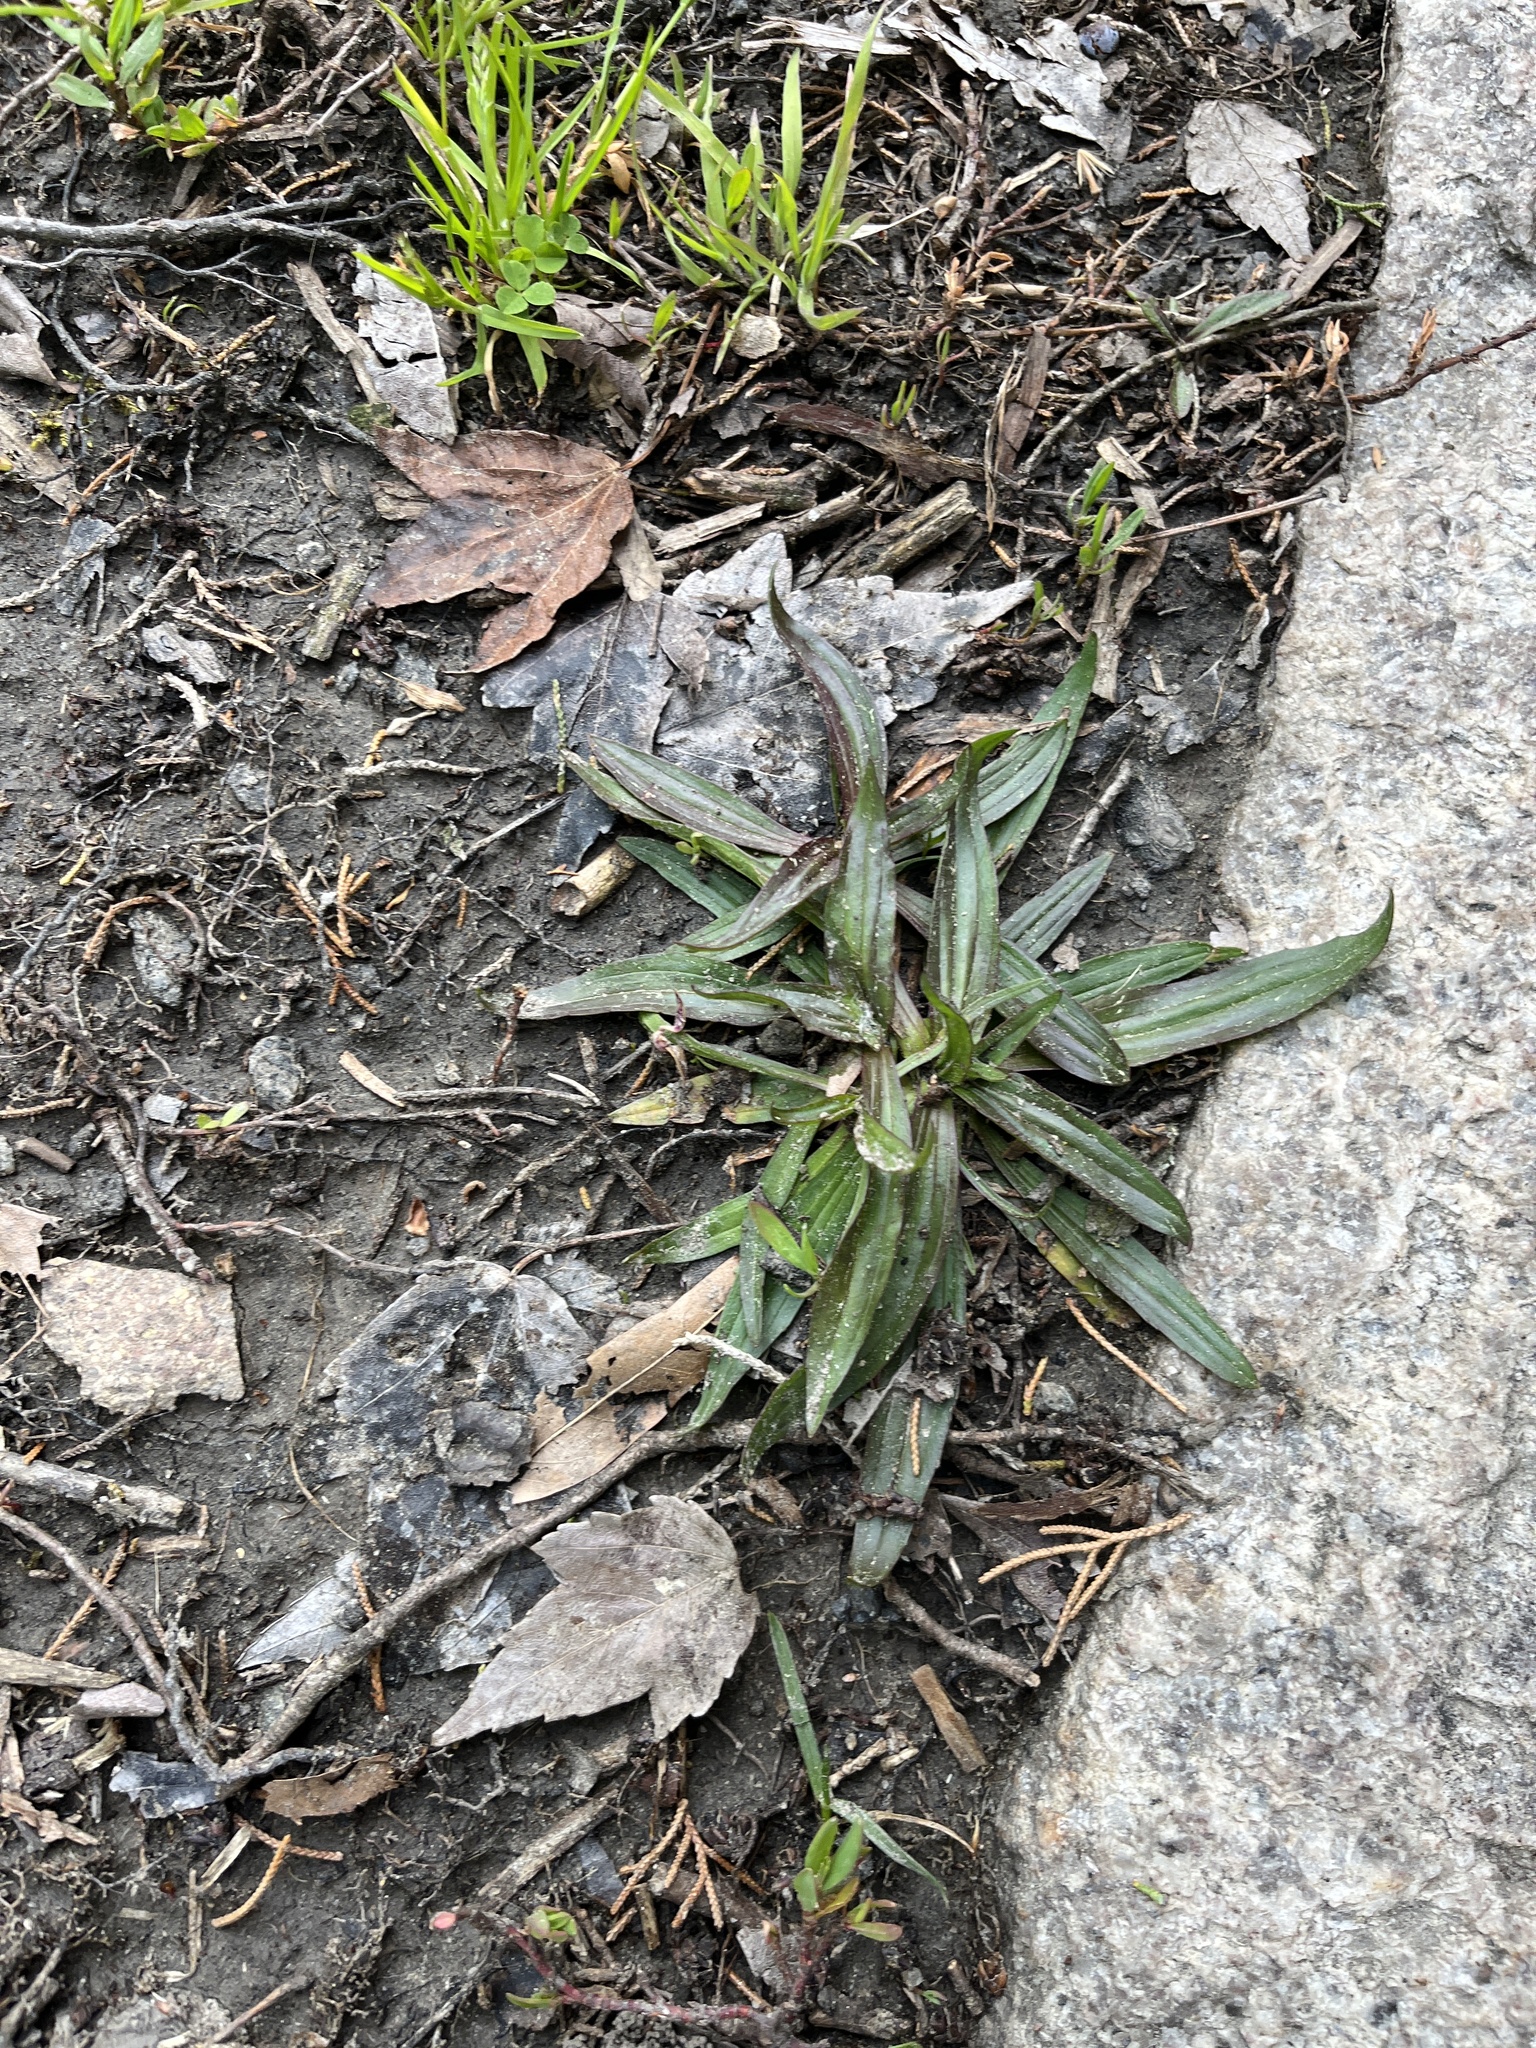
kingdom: Plantae
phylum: Tracheophyta
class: Magnoliopsida
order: Lamiales
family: Plantaginaceae
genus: Plantago
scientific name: Plantago lanceolata
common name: Ribwort plantain
